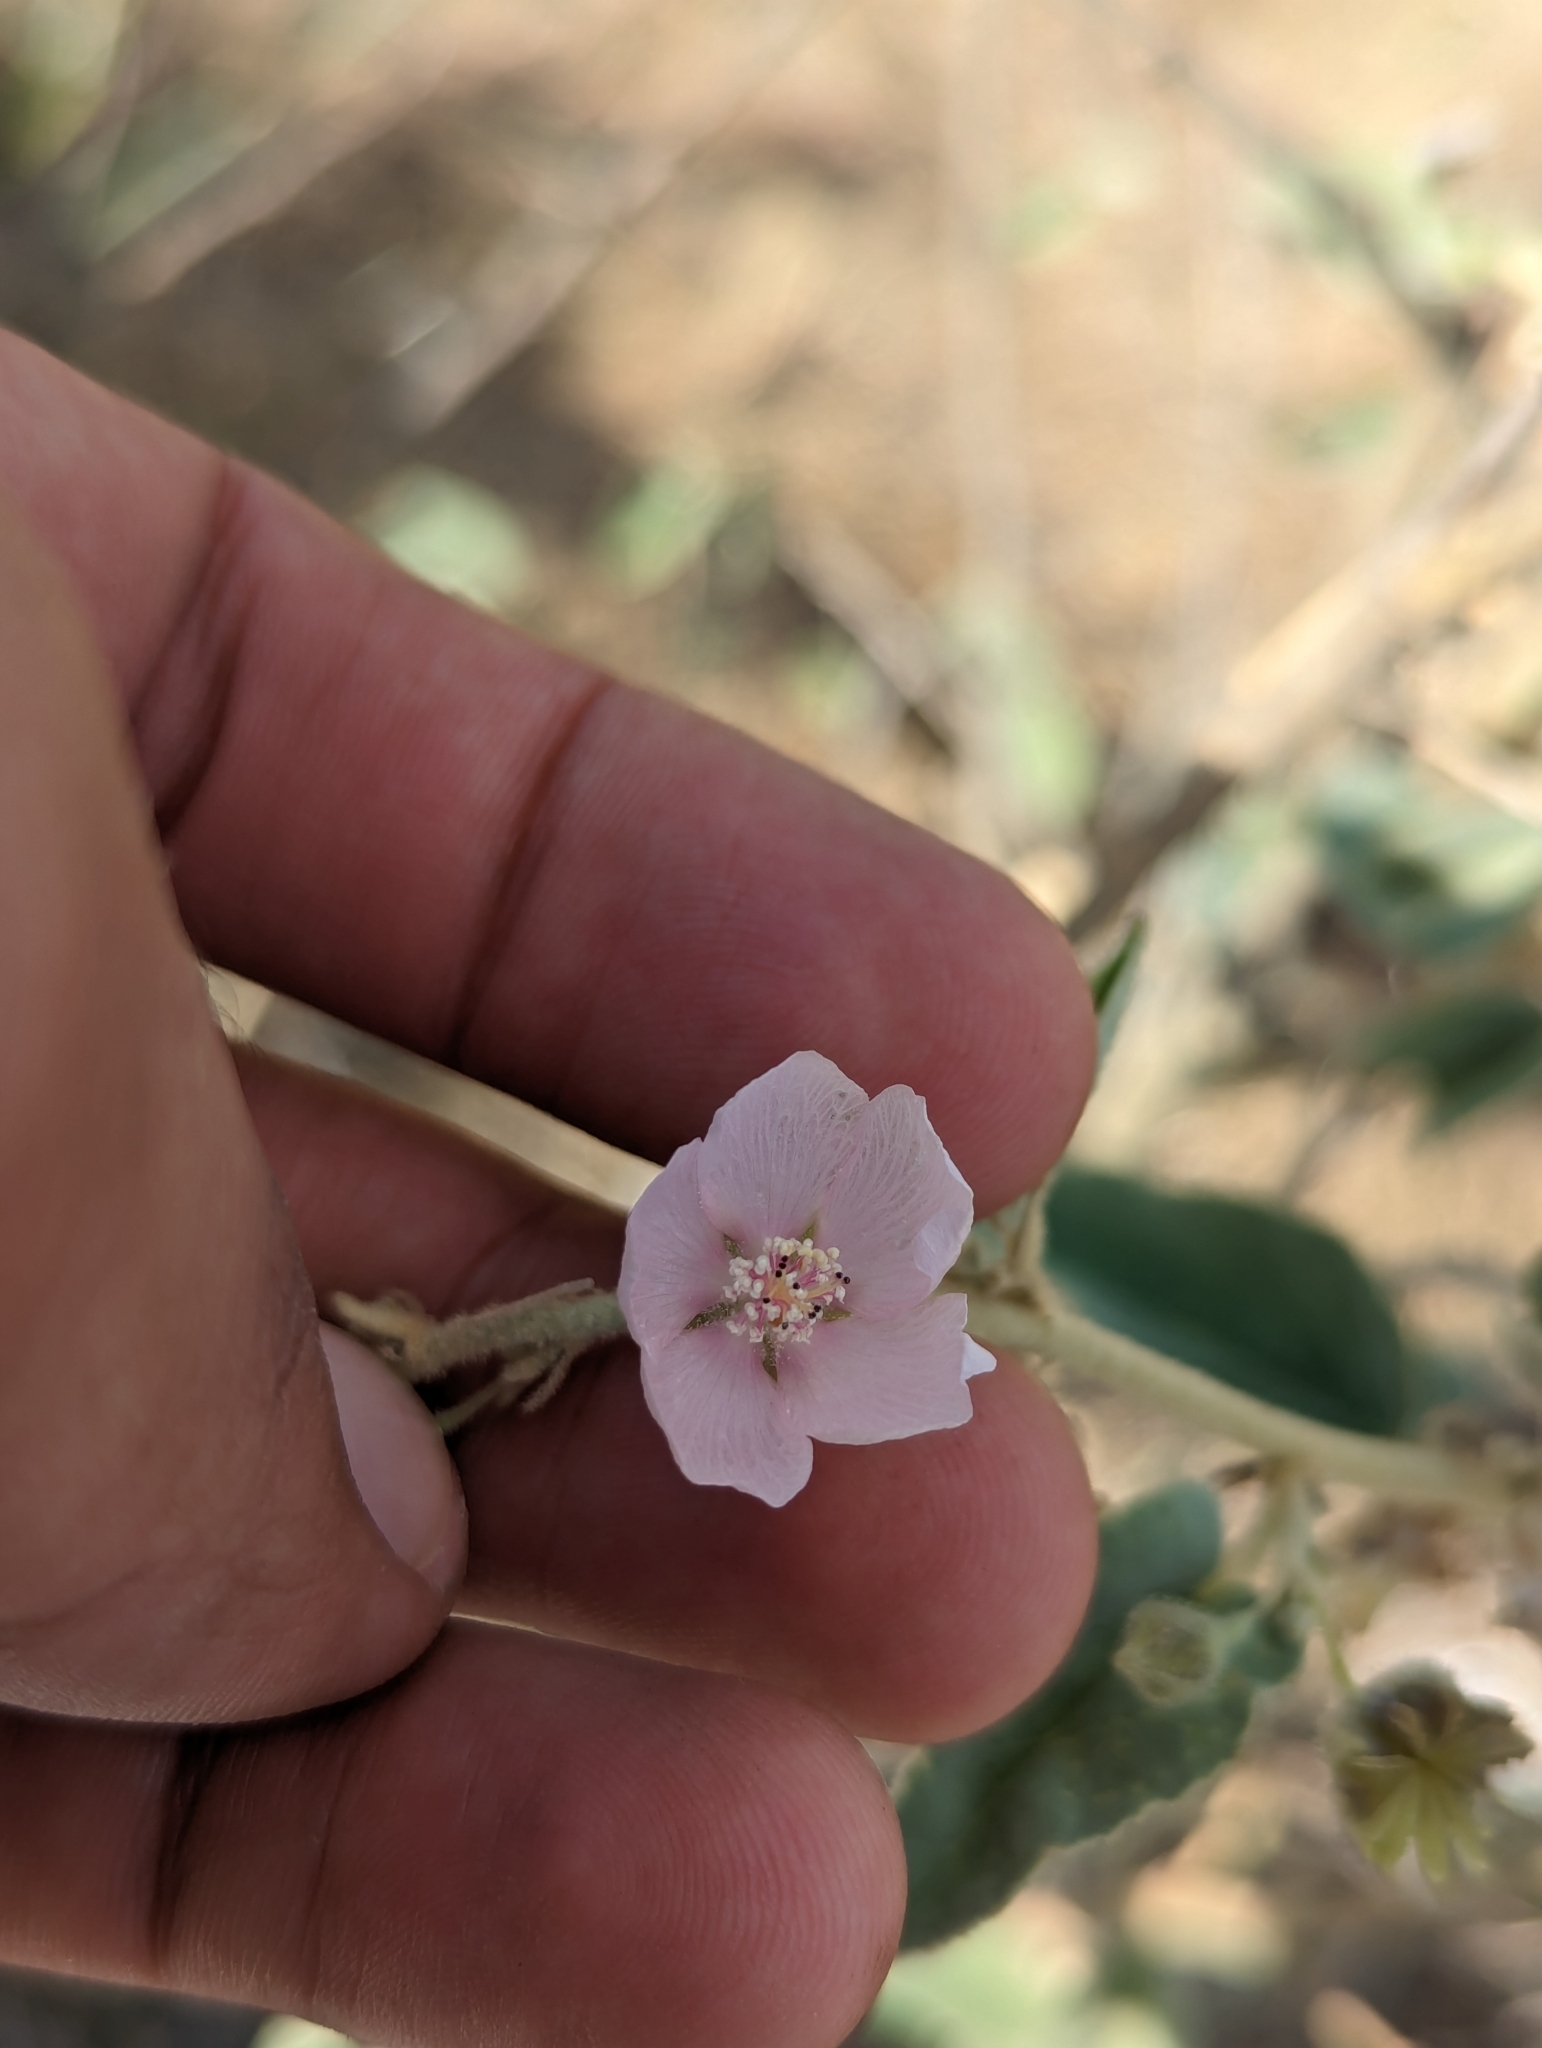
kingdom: Plantae
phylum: Tracheophyta
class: Magnoliopsida
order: Malvales
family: Malvaceae
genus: Horsfordia
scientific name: Horsfordia alata
